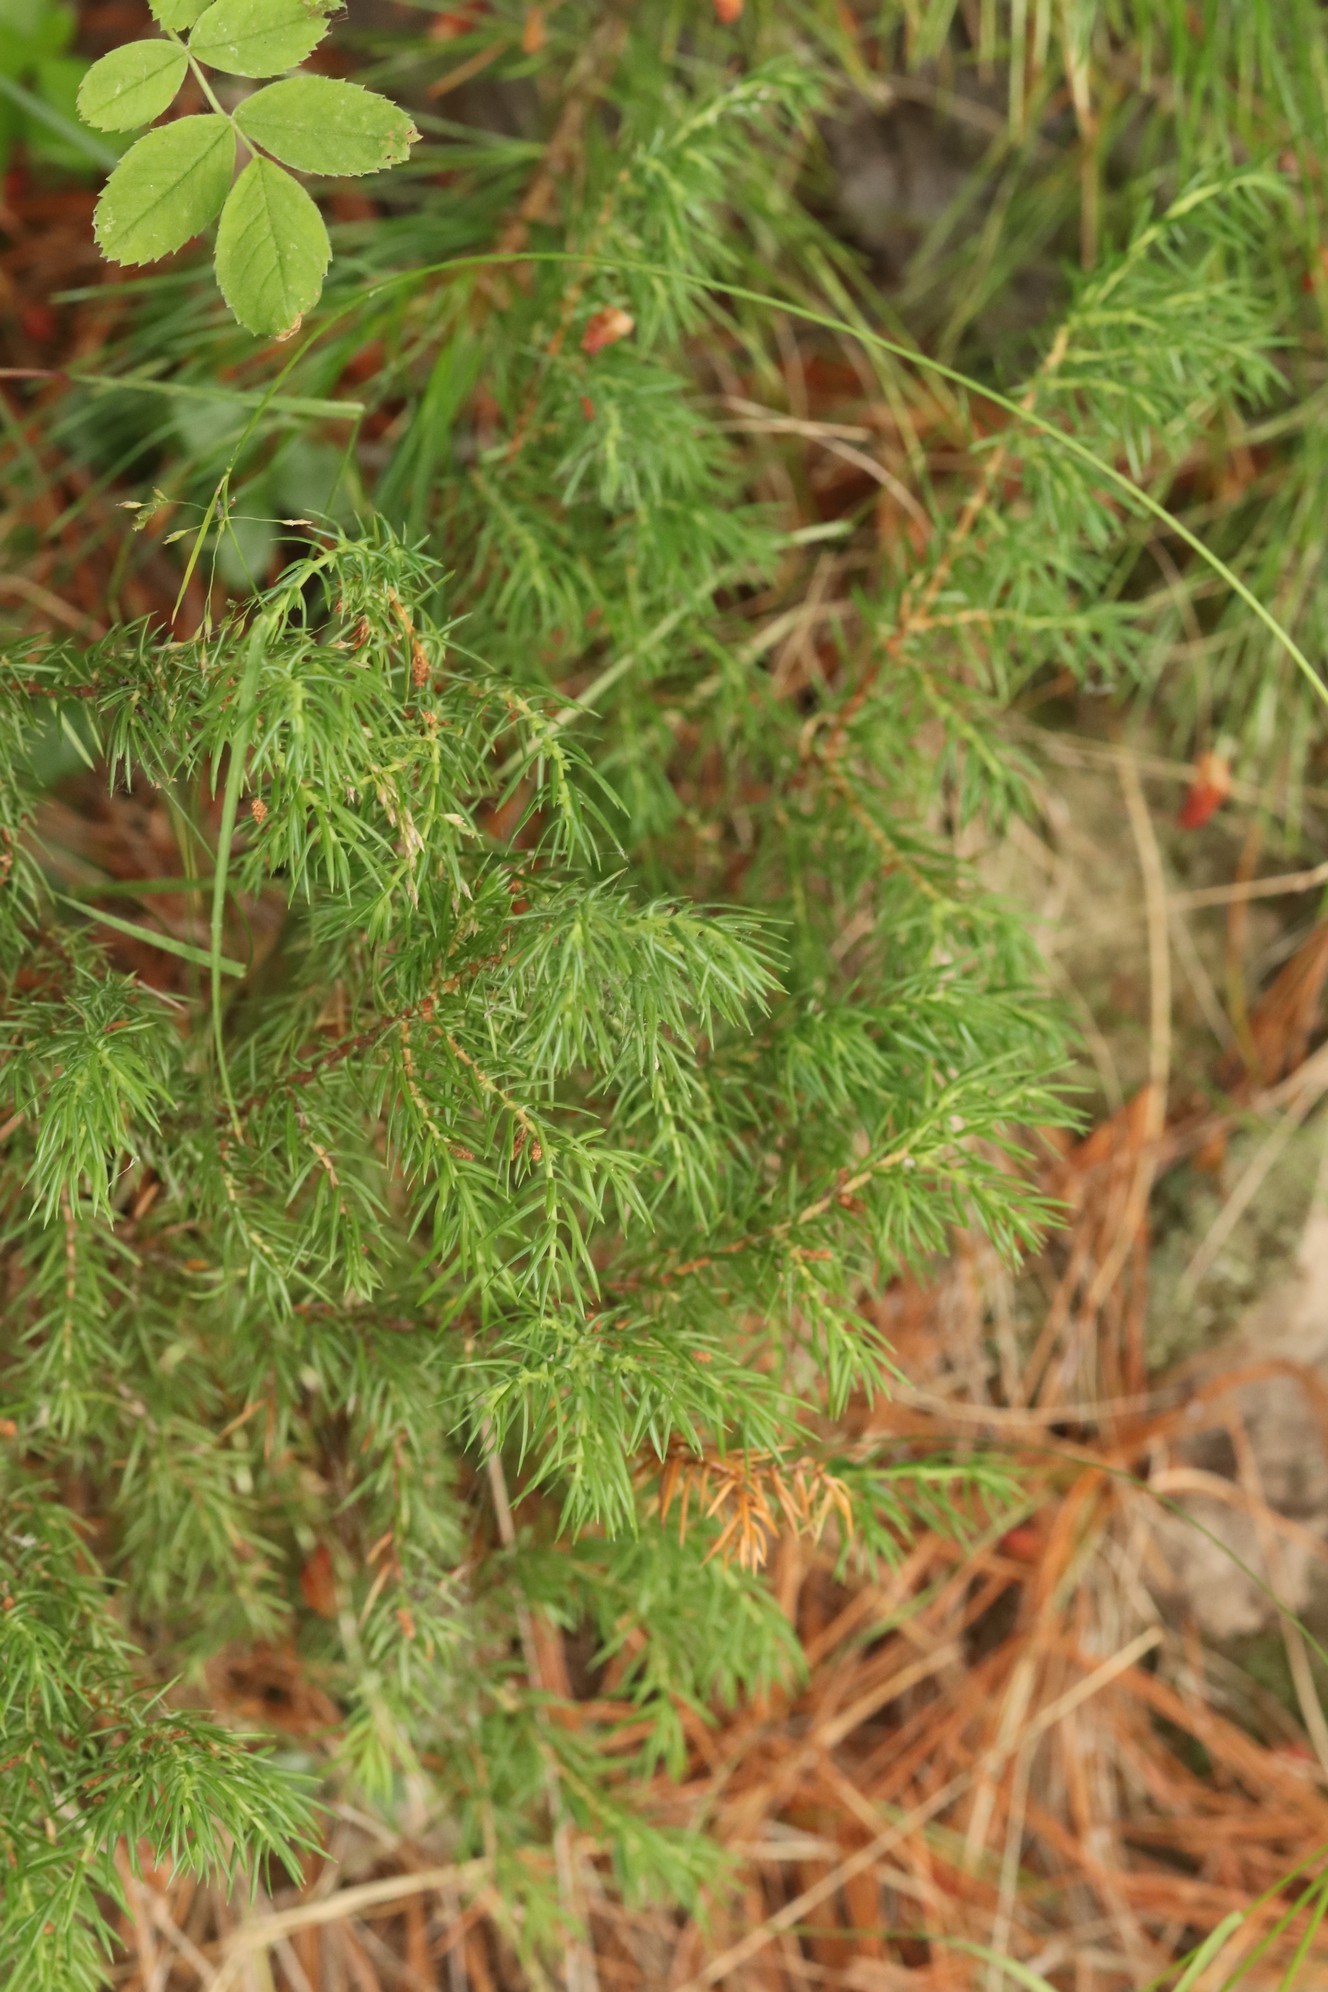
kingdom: Plantae
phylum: Tracheophyta
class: Pinopsida
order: Pinales
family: Cupressaceae
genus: Juniperus
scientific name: Juniperus communis
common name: Common juniper
